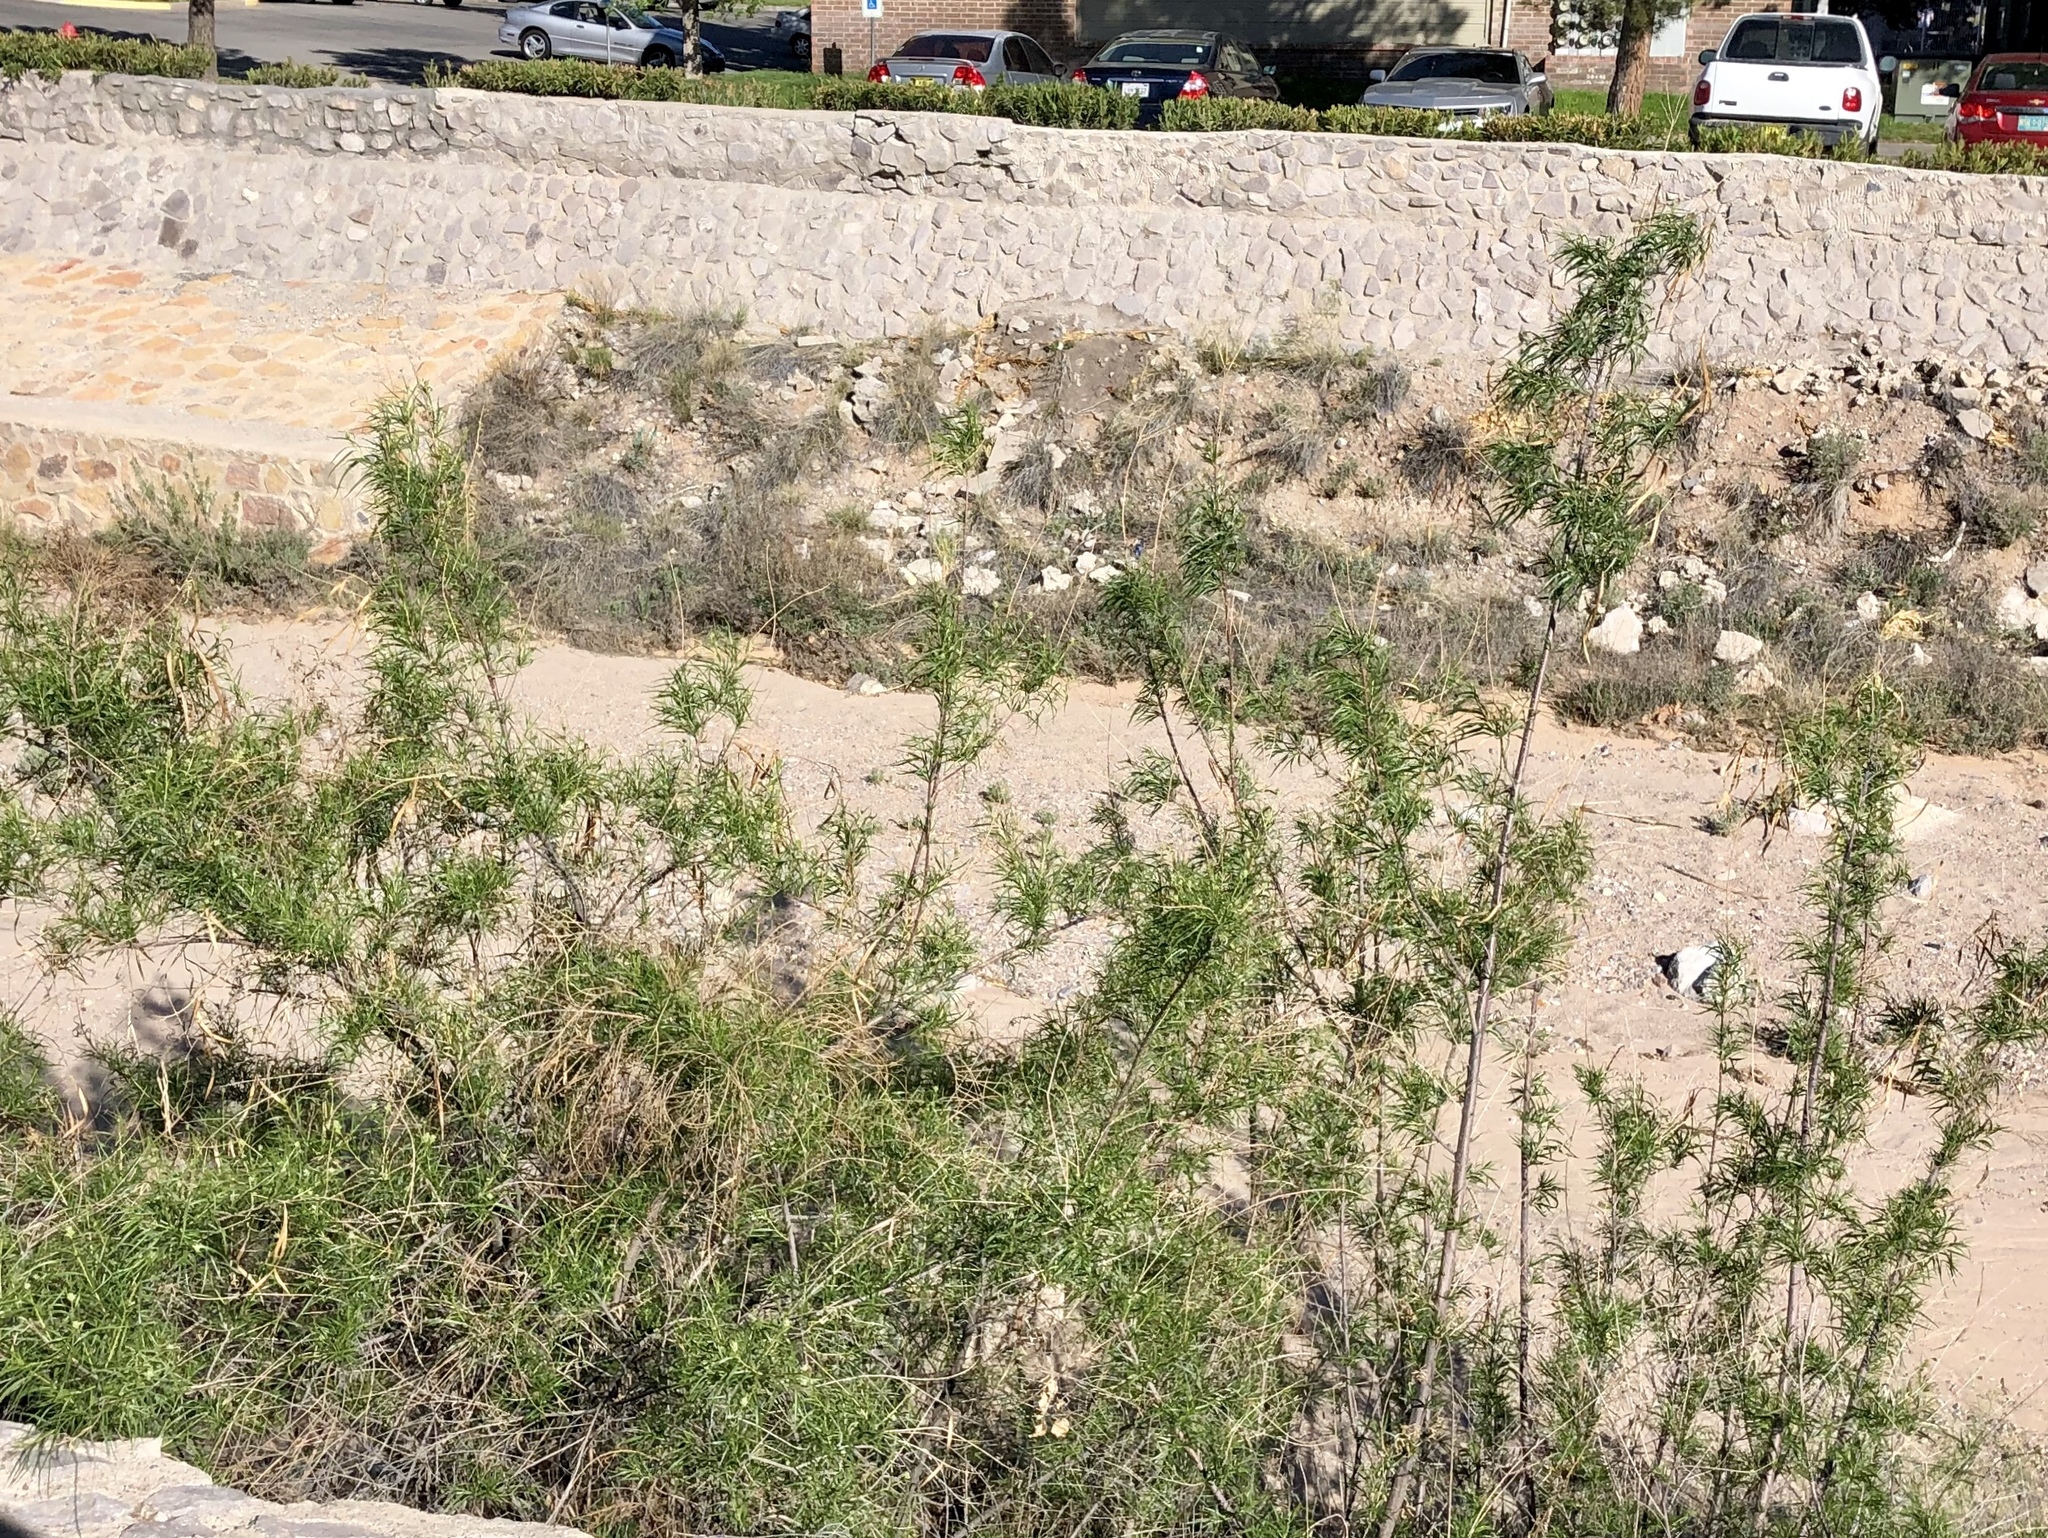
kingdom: Plantae
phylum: Tracheophyta
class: Magnoliopsida
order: Lamiales
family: Bignoniaceae
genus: Chilopsis
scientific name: Chilopsis linearis
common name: Desert-willow
